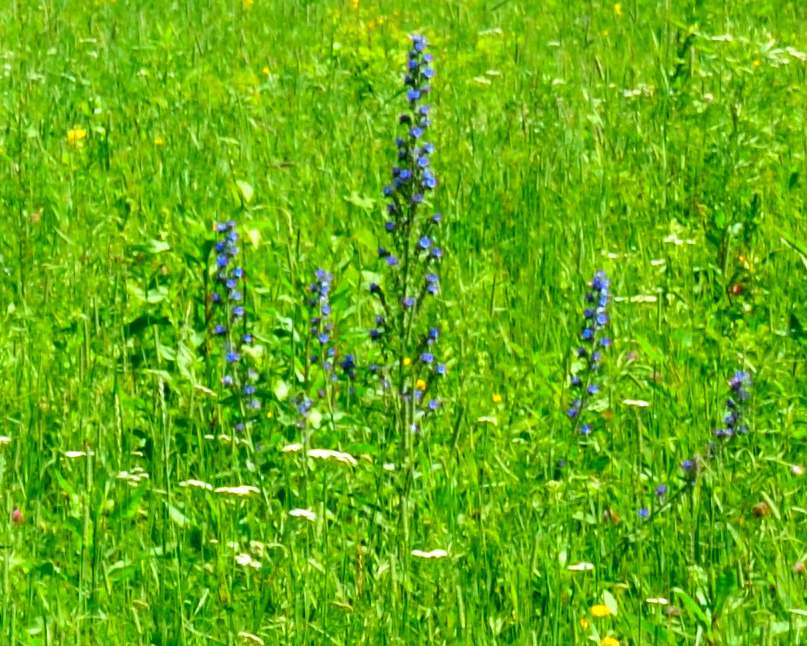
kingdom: Plantae
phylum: Tracheophyta
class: Magnoliopsida
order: Boraginales
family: Boraginaceae
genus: Echium
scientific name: Echium vulgare
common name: Common viper's bugloss
